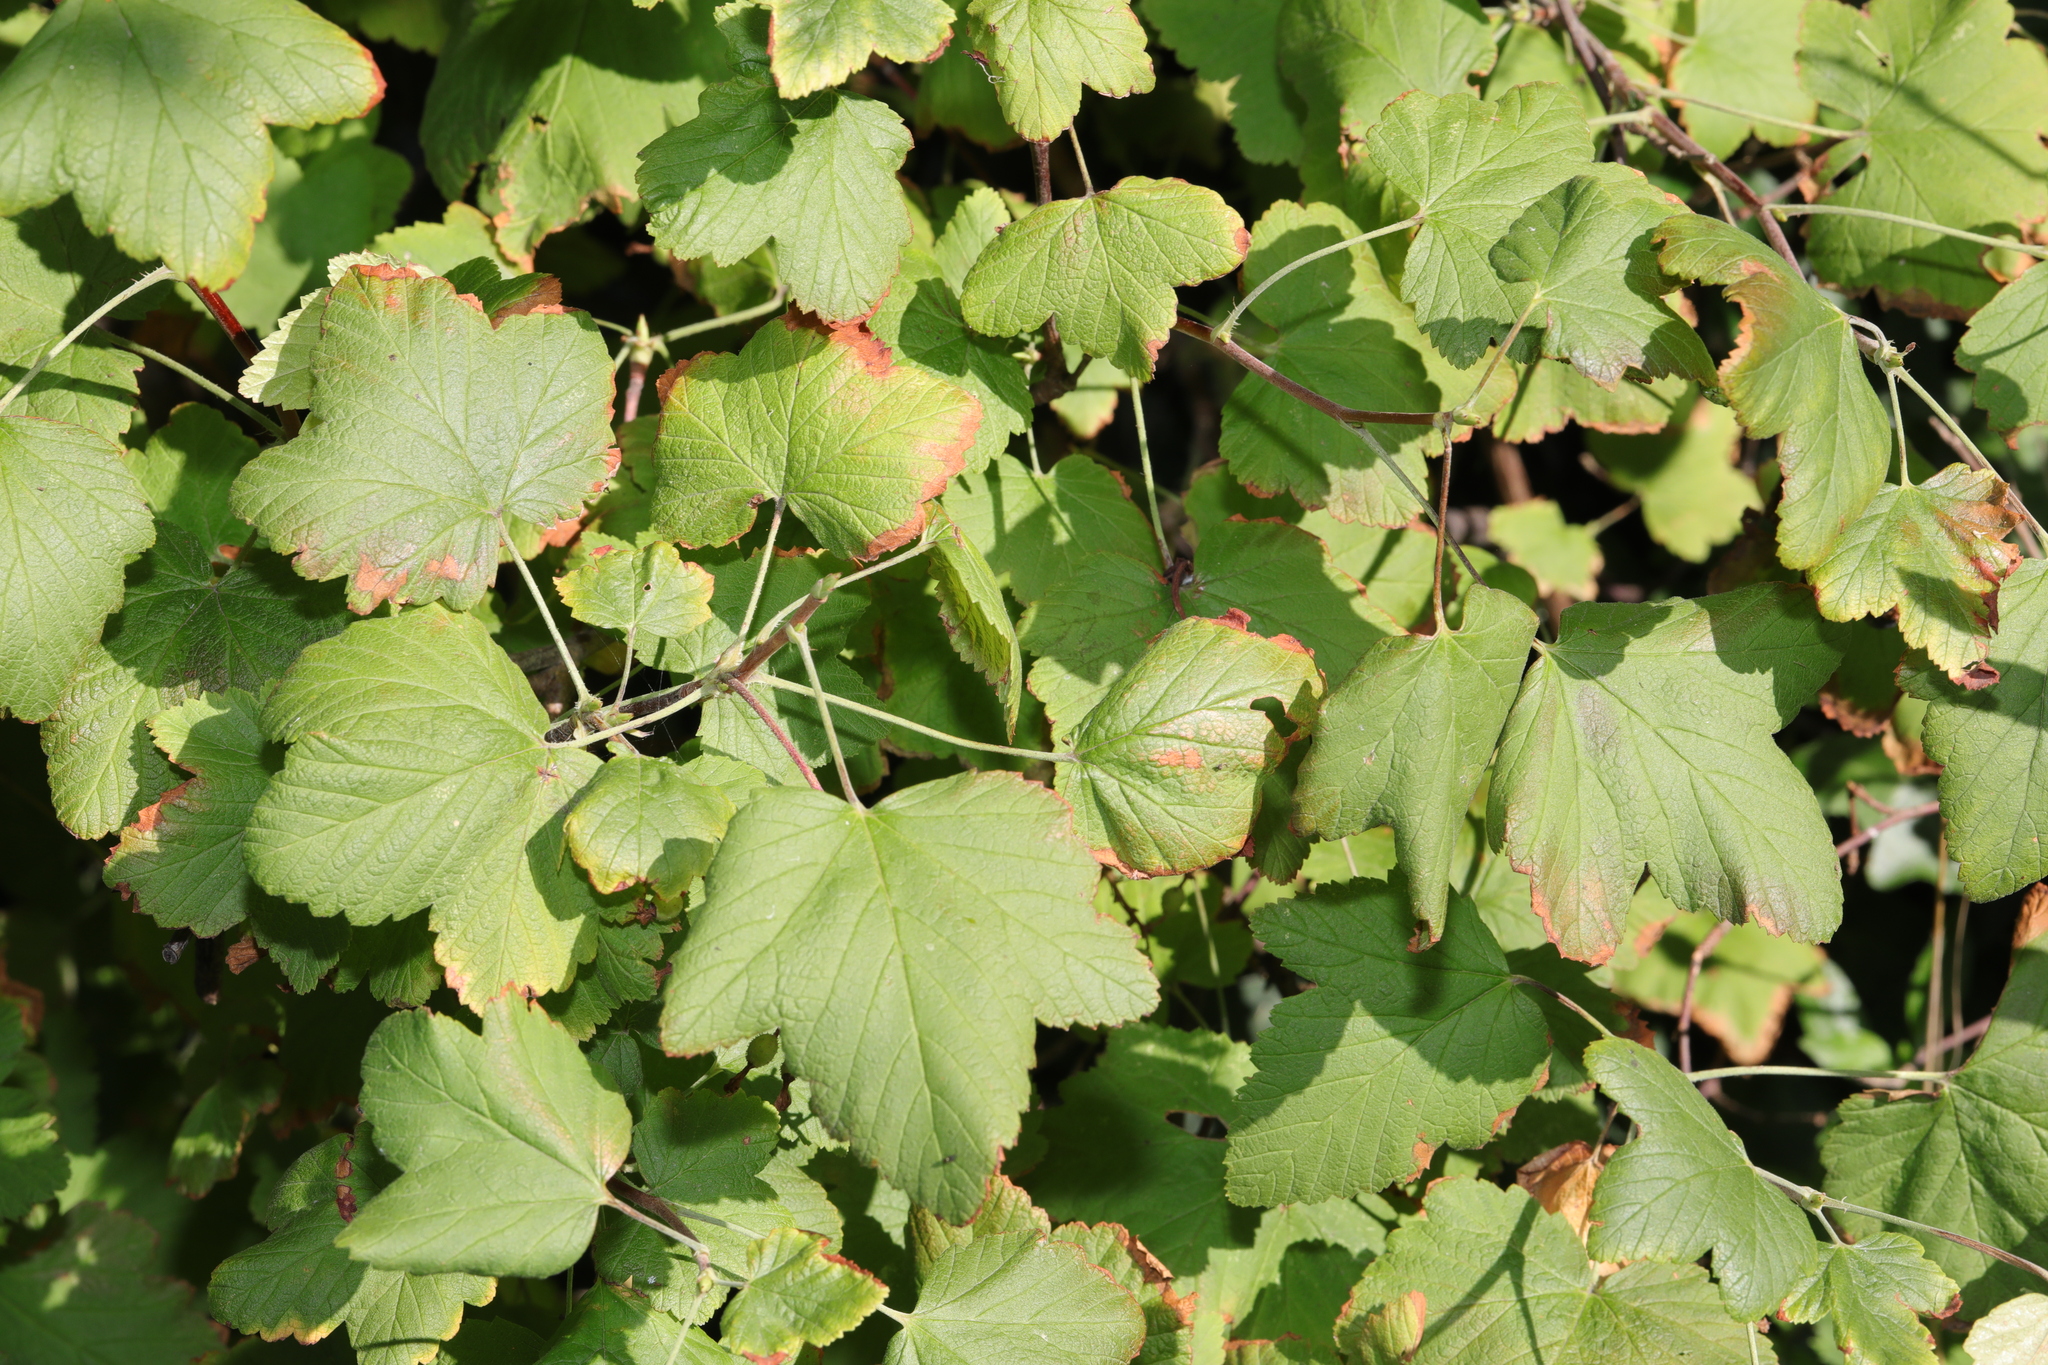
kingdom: Plantae
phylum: Tracheophyta
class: Magnoliopsida
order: Saxifragales
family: Grossulariaceae
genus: Ribes
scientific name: Ribes sanguineum
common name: Flowering currant
